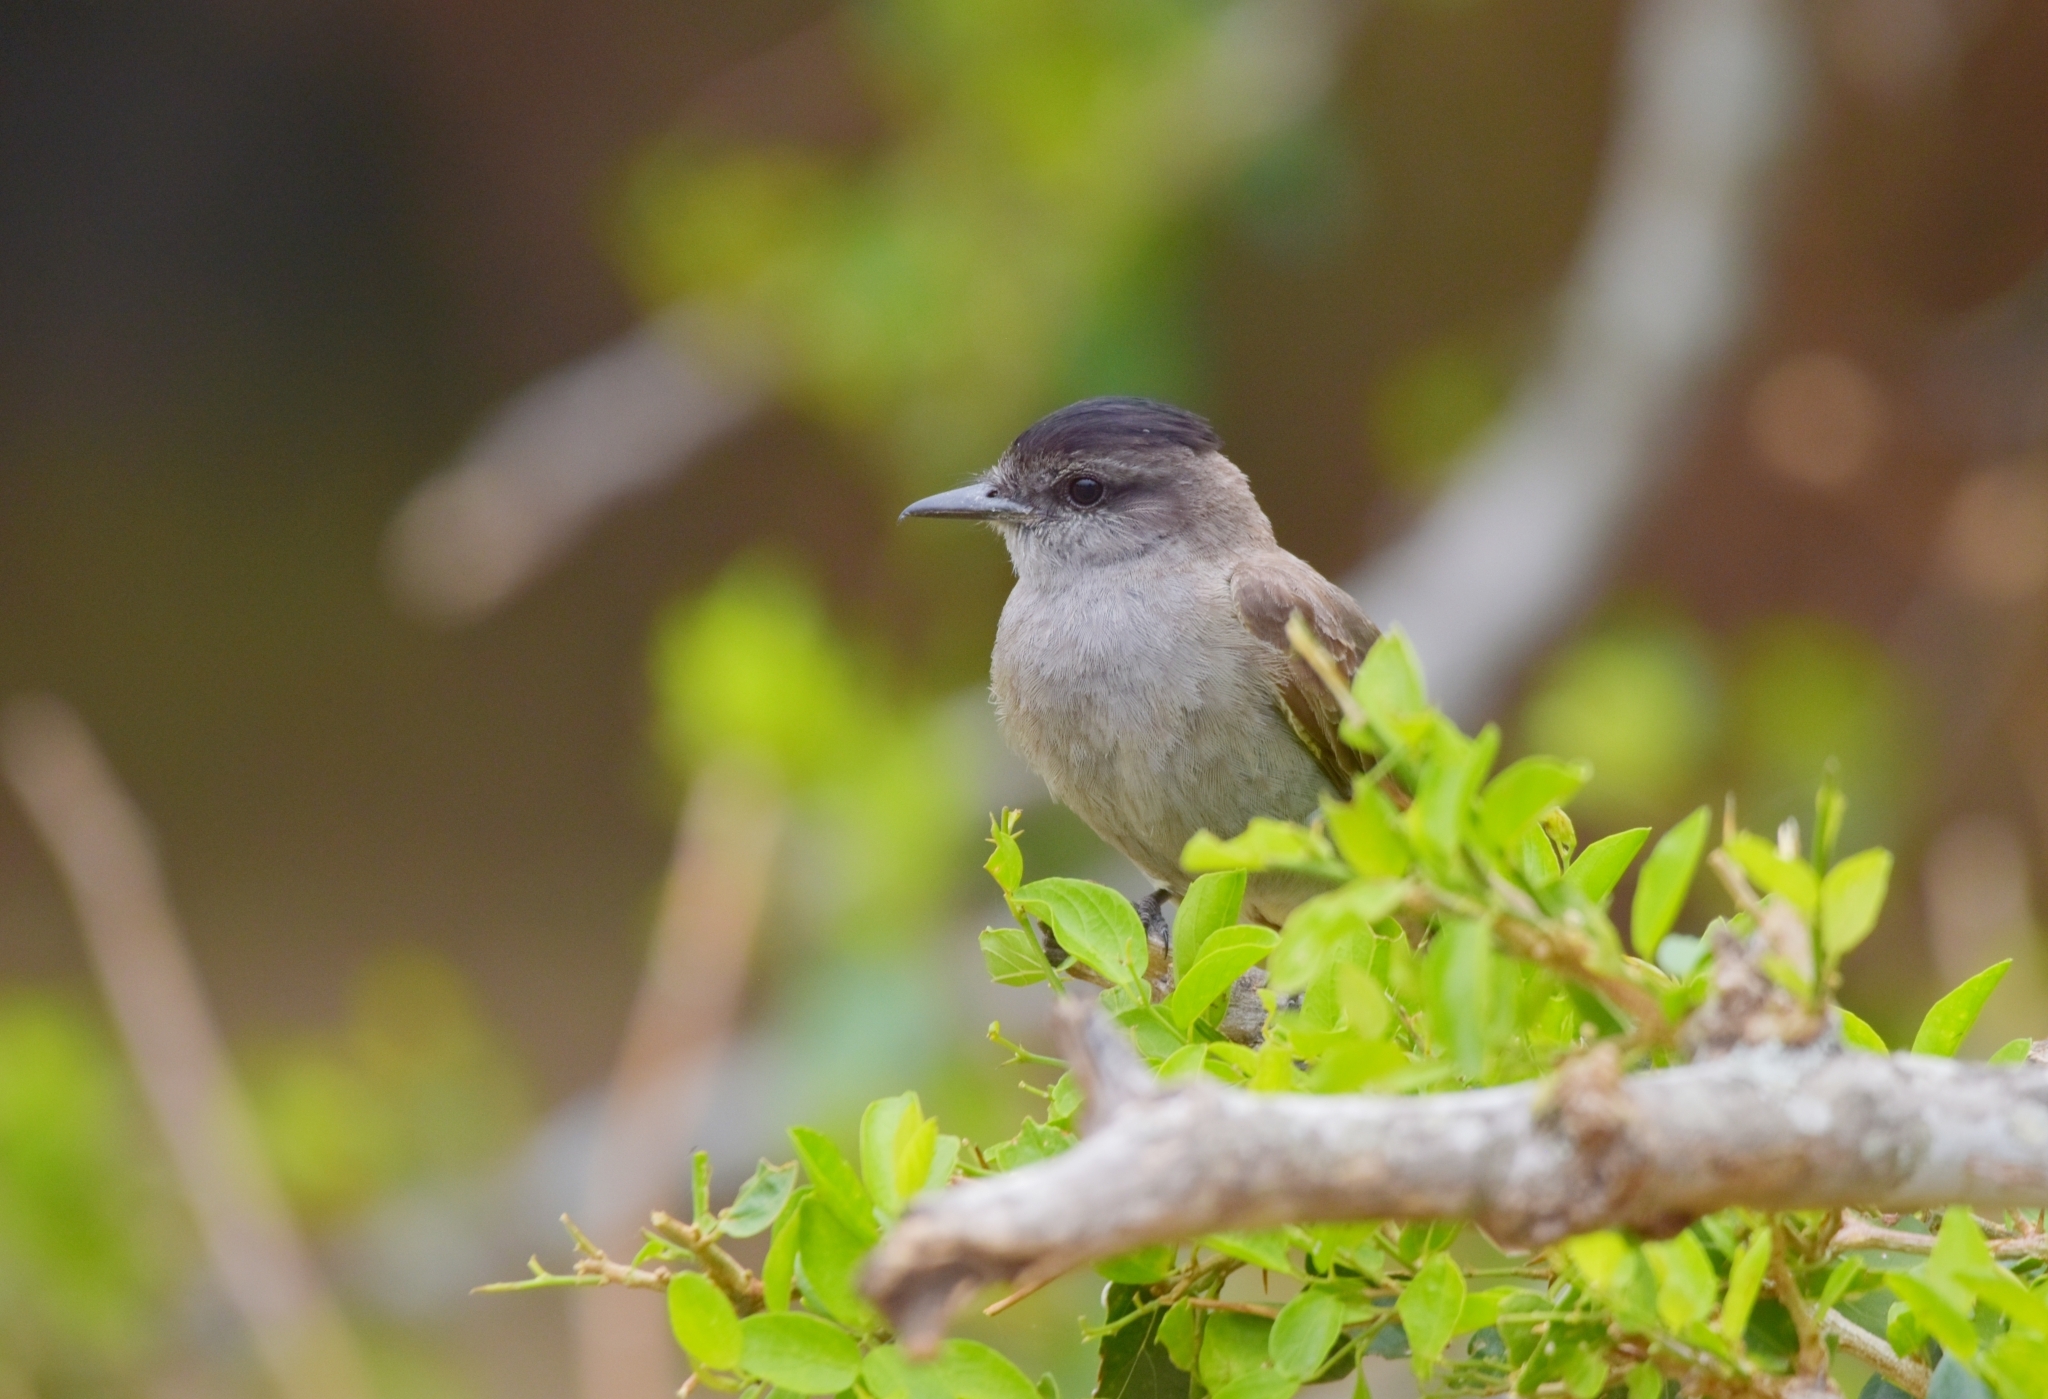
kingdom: Animalia
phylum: Chordata
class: Aves
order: Passeriformes
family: Tyrannidae
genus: Empidonomus
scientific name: Empidonomus aurantioatrocristatus
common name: Crowned slaty flycatcher
